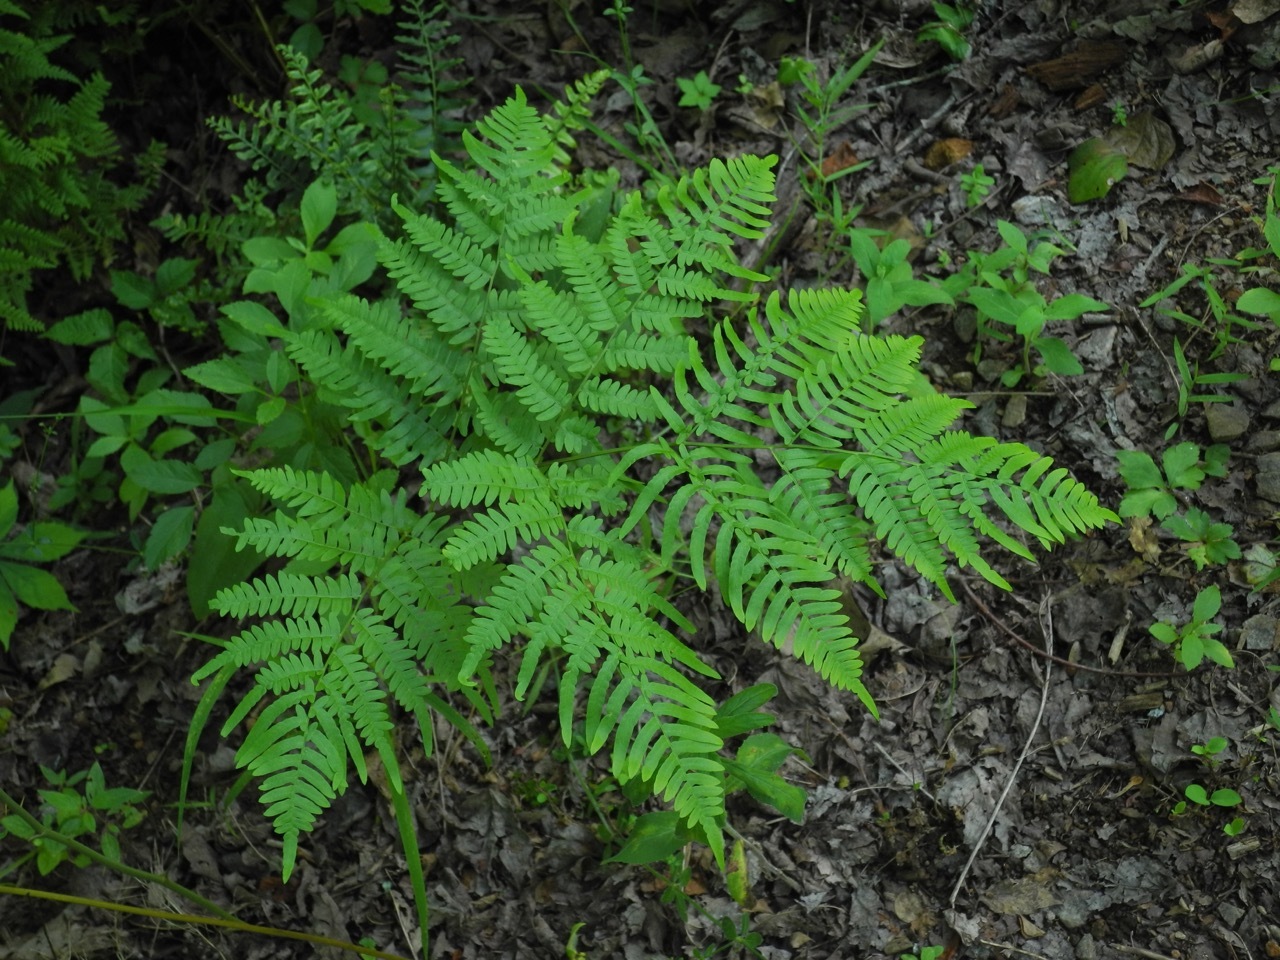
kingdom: Plantae
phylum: Tracheophyta
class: Polypodiopsida
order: Polypodiales
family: Dennstaedtiaceae
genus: Pteridium
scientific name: Pteridium
